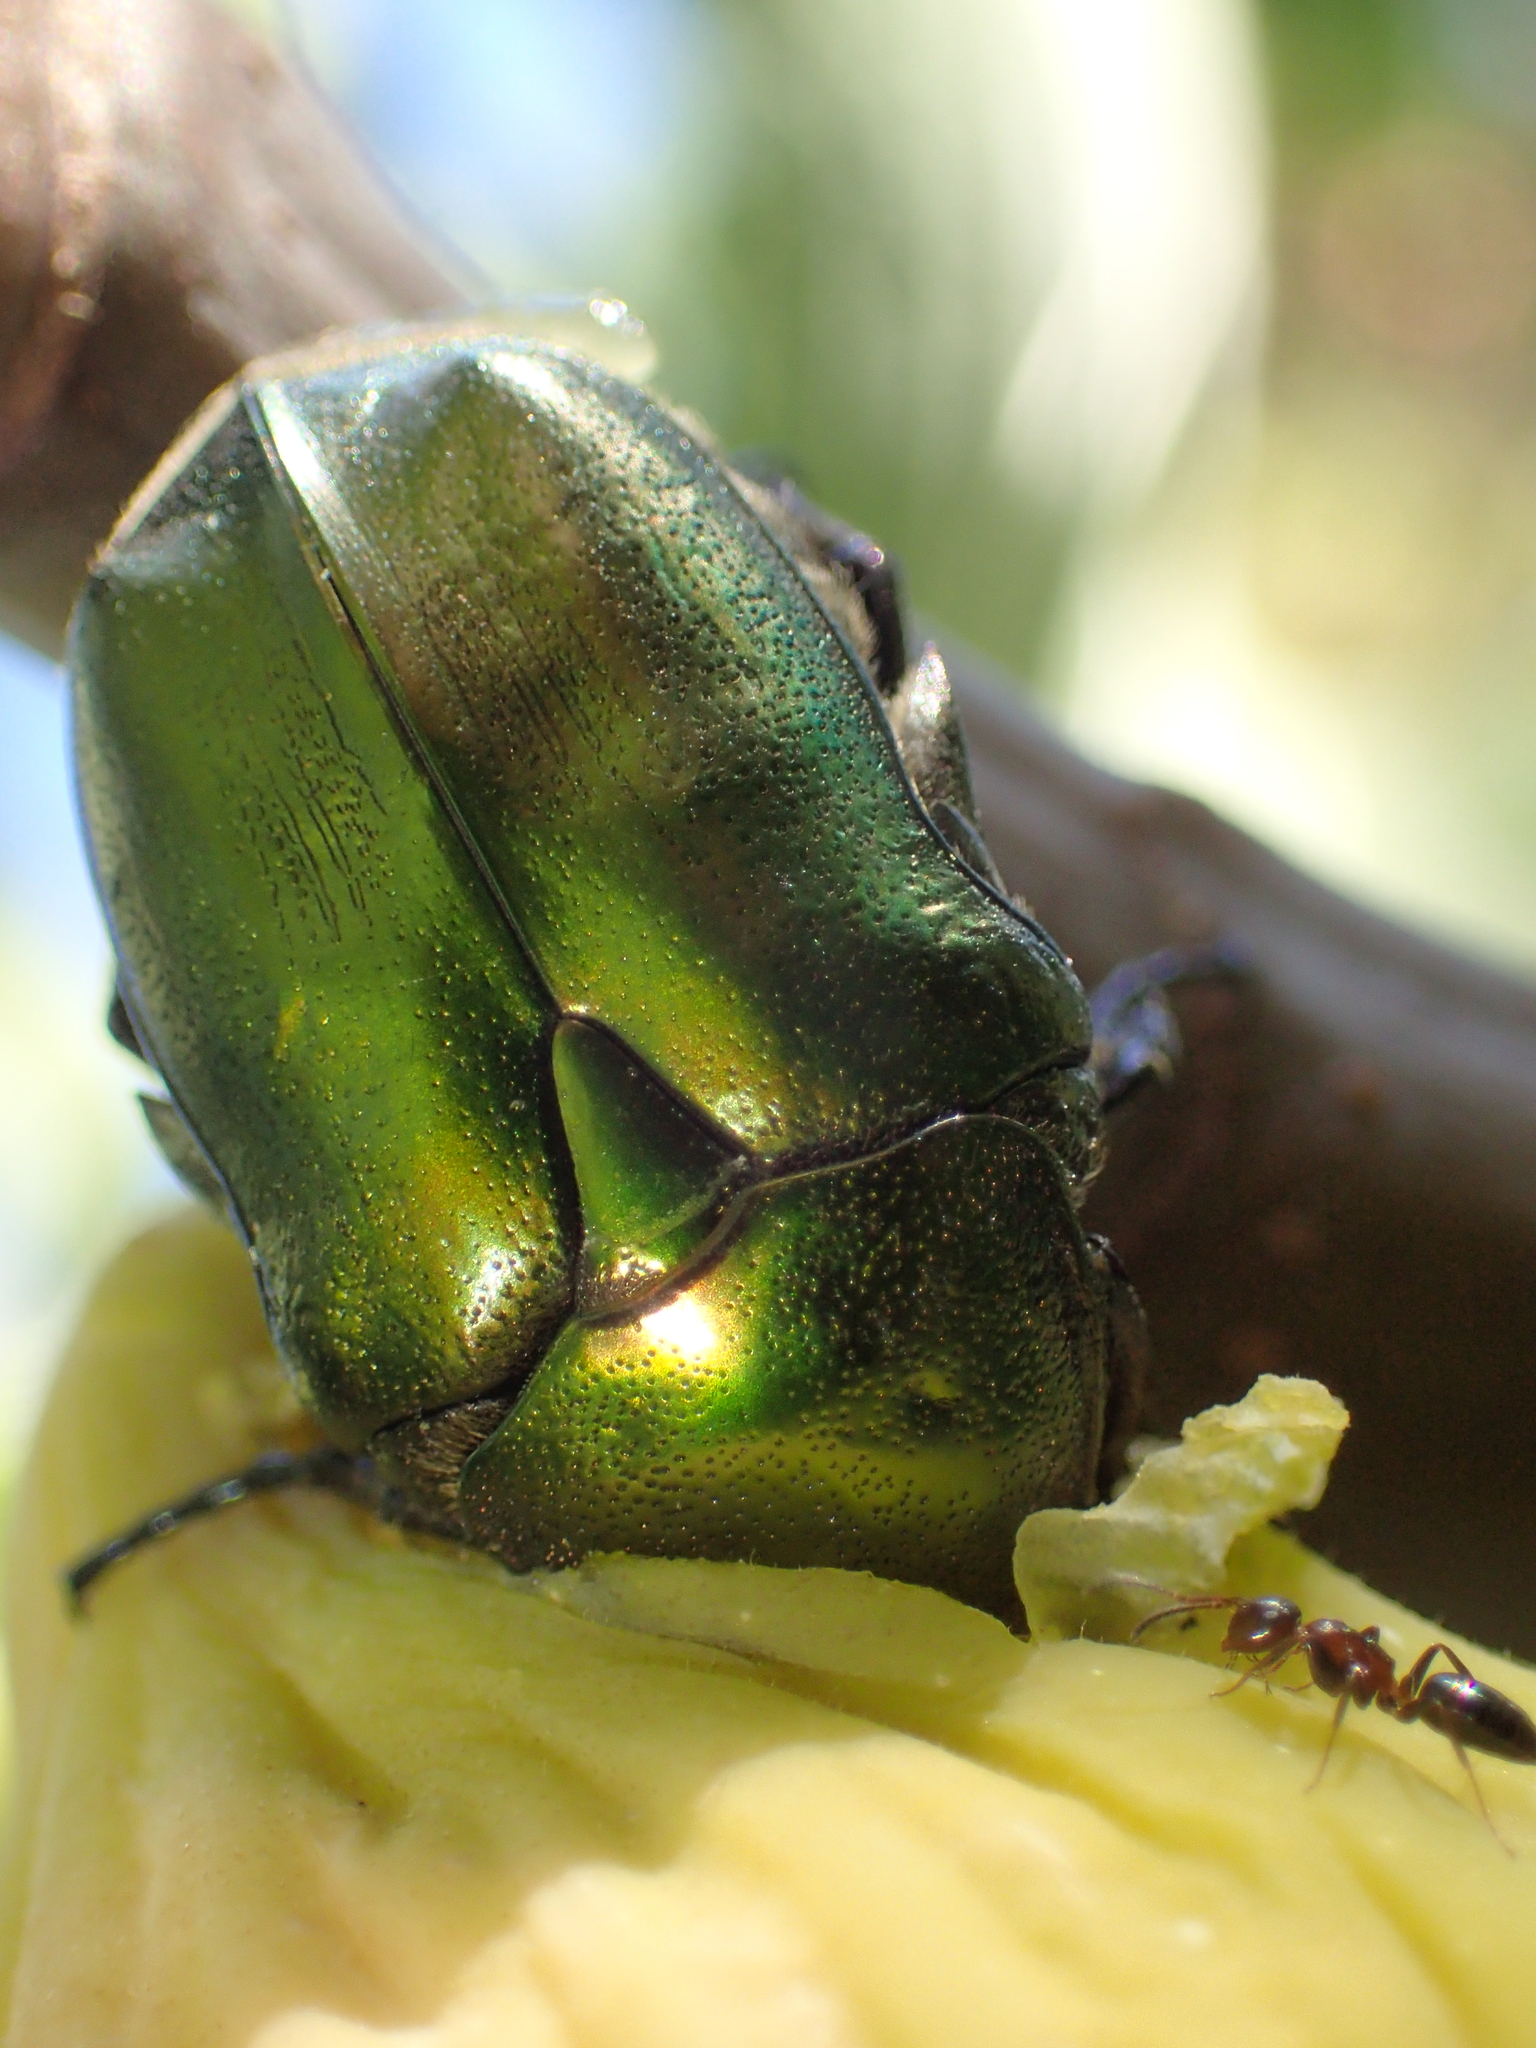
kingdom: Animalia
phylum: Arthropoda
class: Insecta
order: Coleoptera
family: Scarabaeidae
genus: Protaetia
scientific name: Protaetia cuprea
